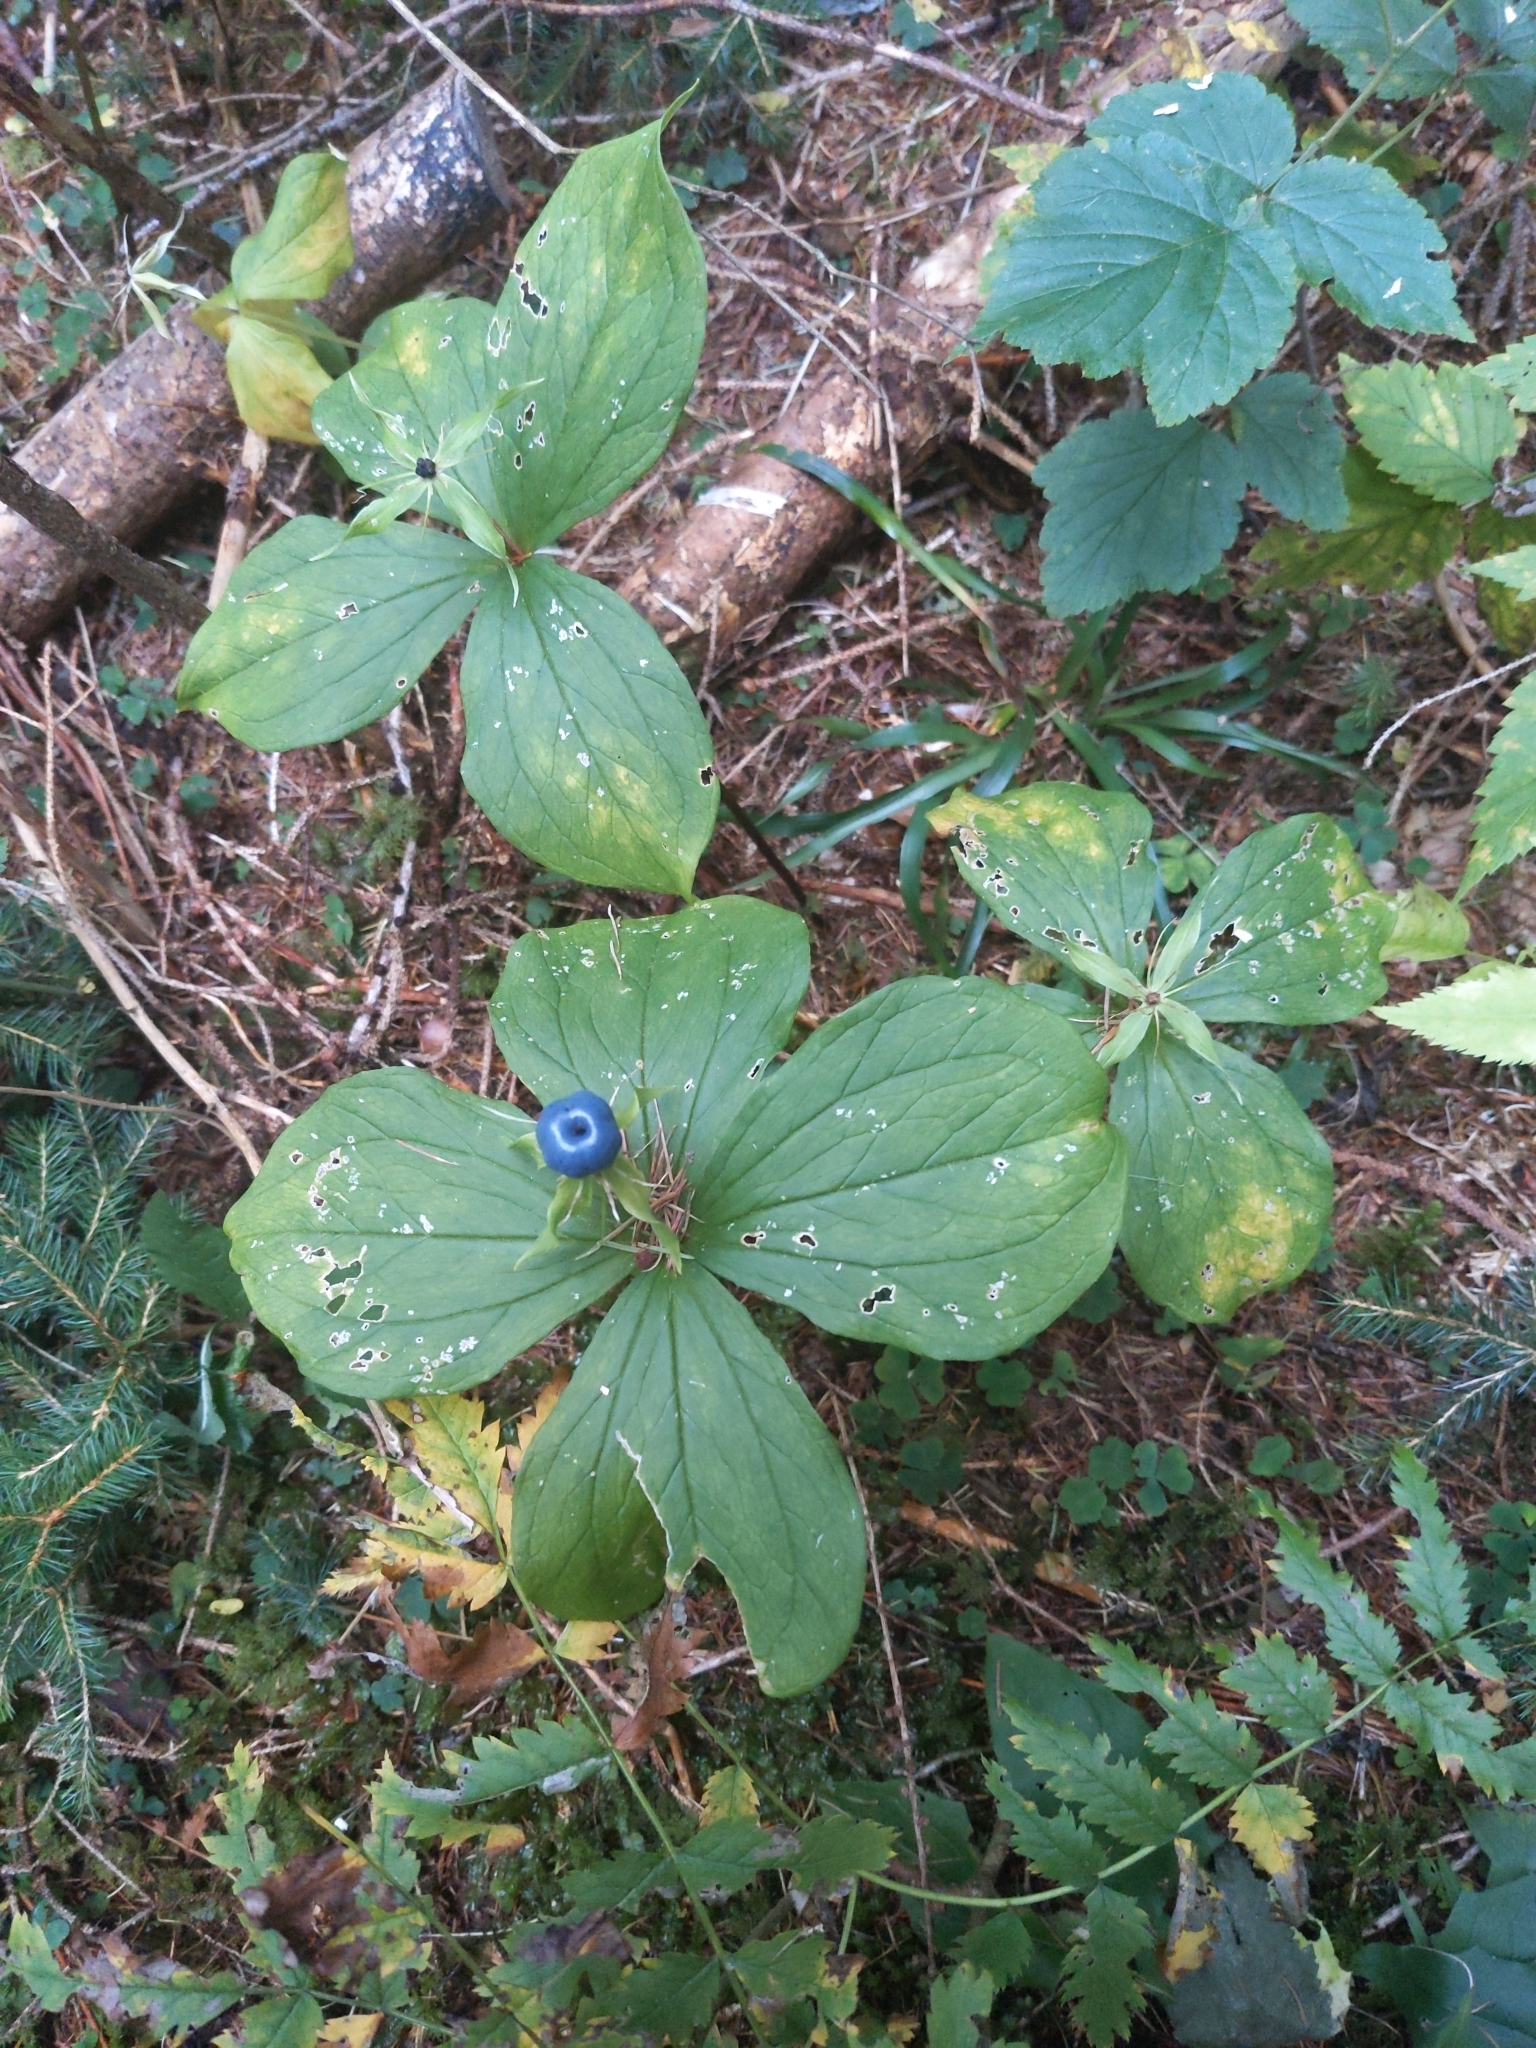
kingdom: Plantae
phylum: Tracheophyta
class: Liliopsida
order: Liliales
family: Melanthiaceae
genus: Paris
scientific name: Paris quadrifolia
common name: Herb-paris
